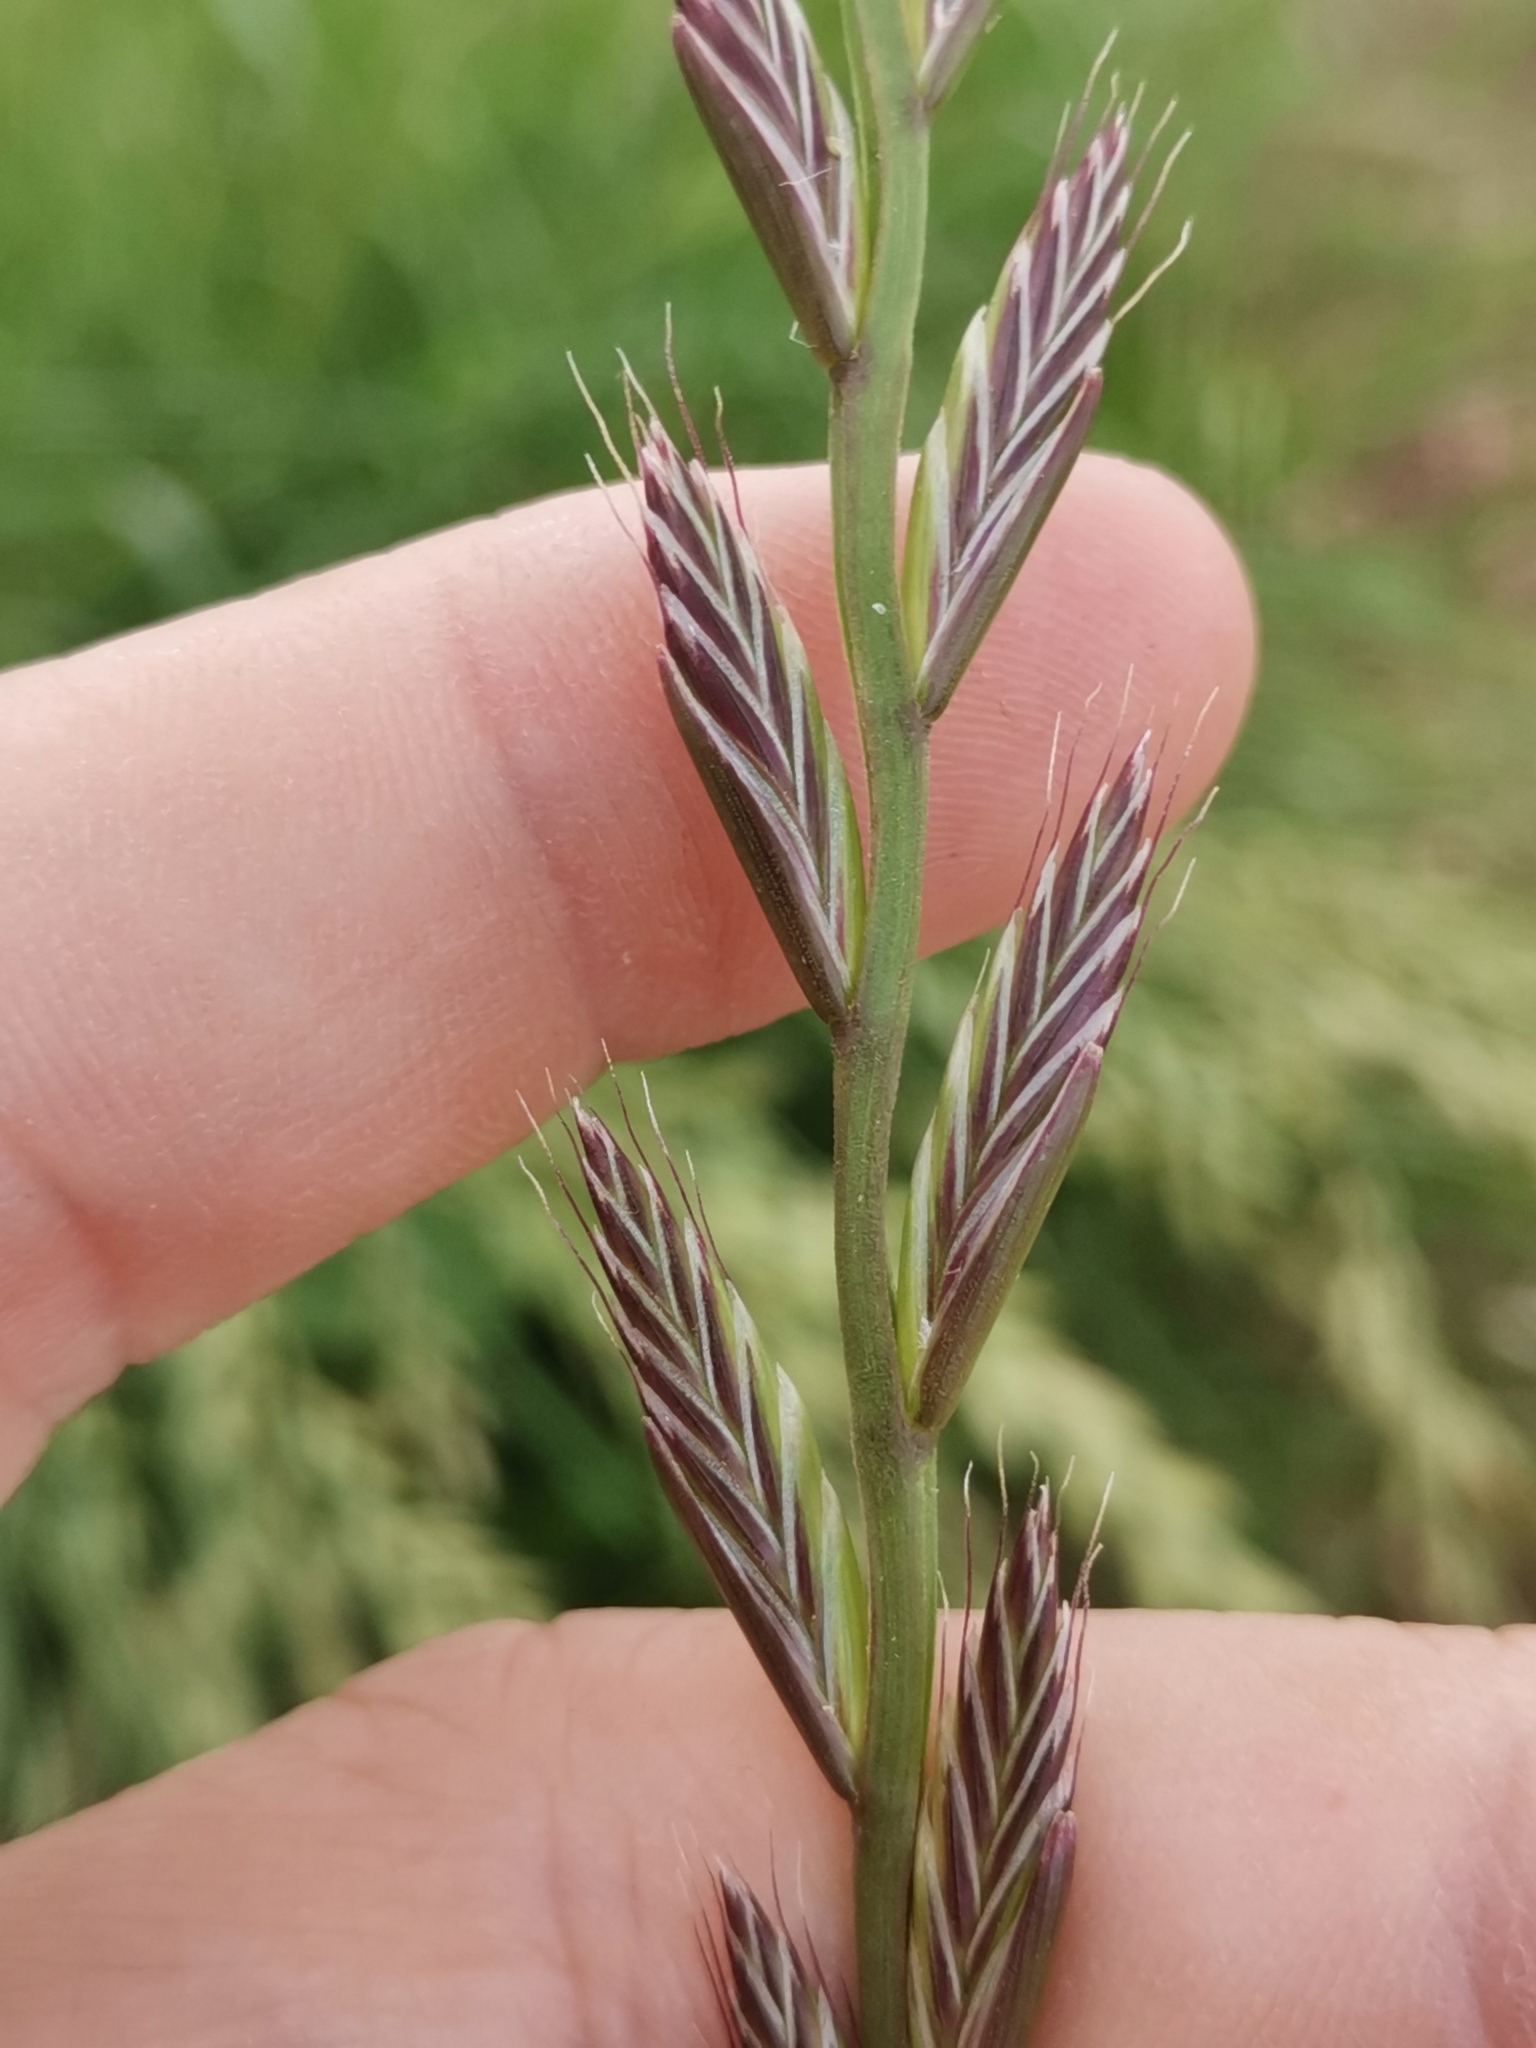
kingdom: Plantae
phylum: Tracheophyta
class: Liliopsida
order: Poales
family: Poaceae
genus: Lolium
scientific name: Lolium multiflorum
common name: Annual ryegrass
